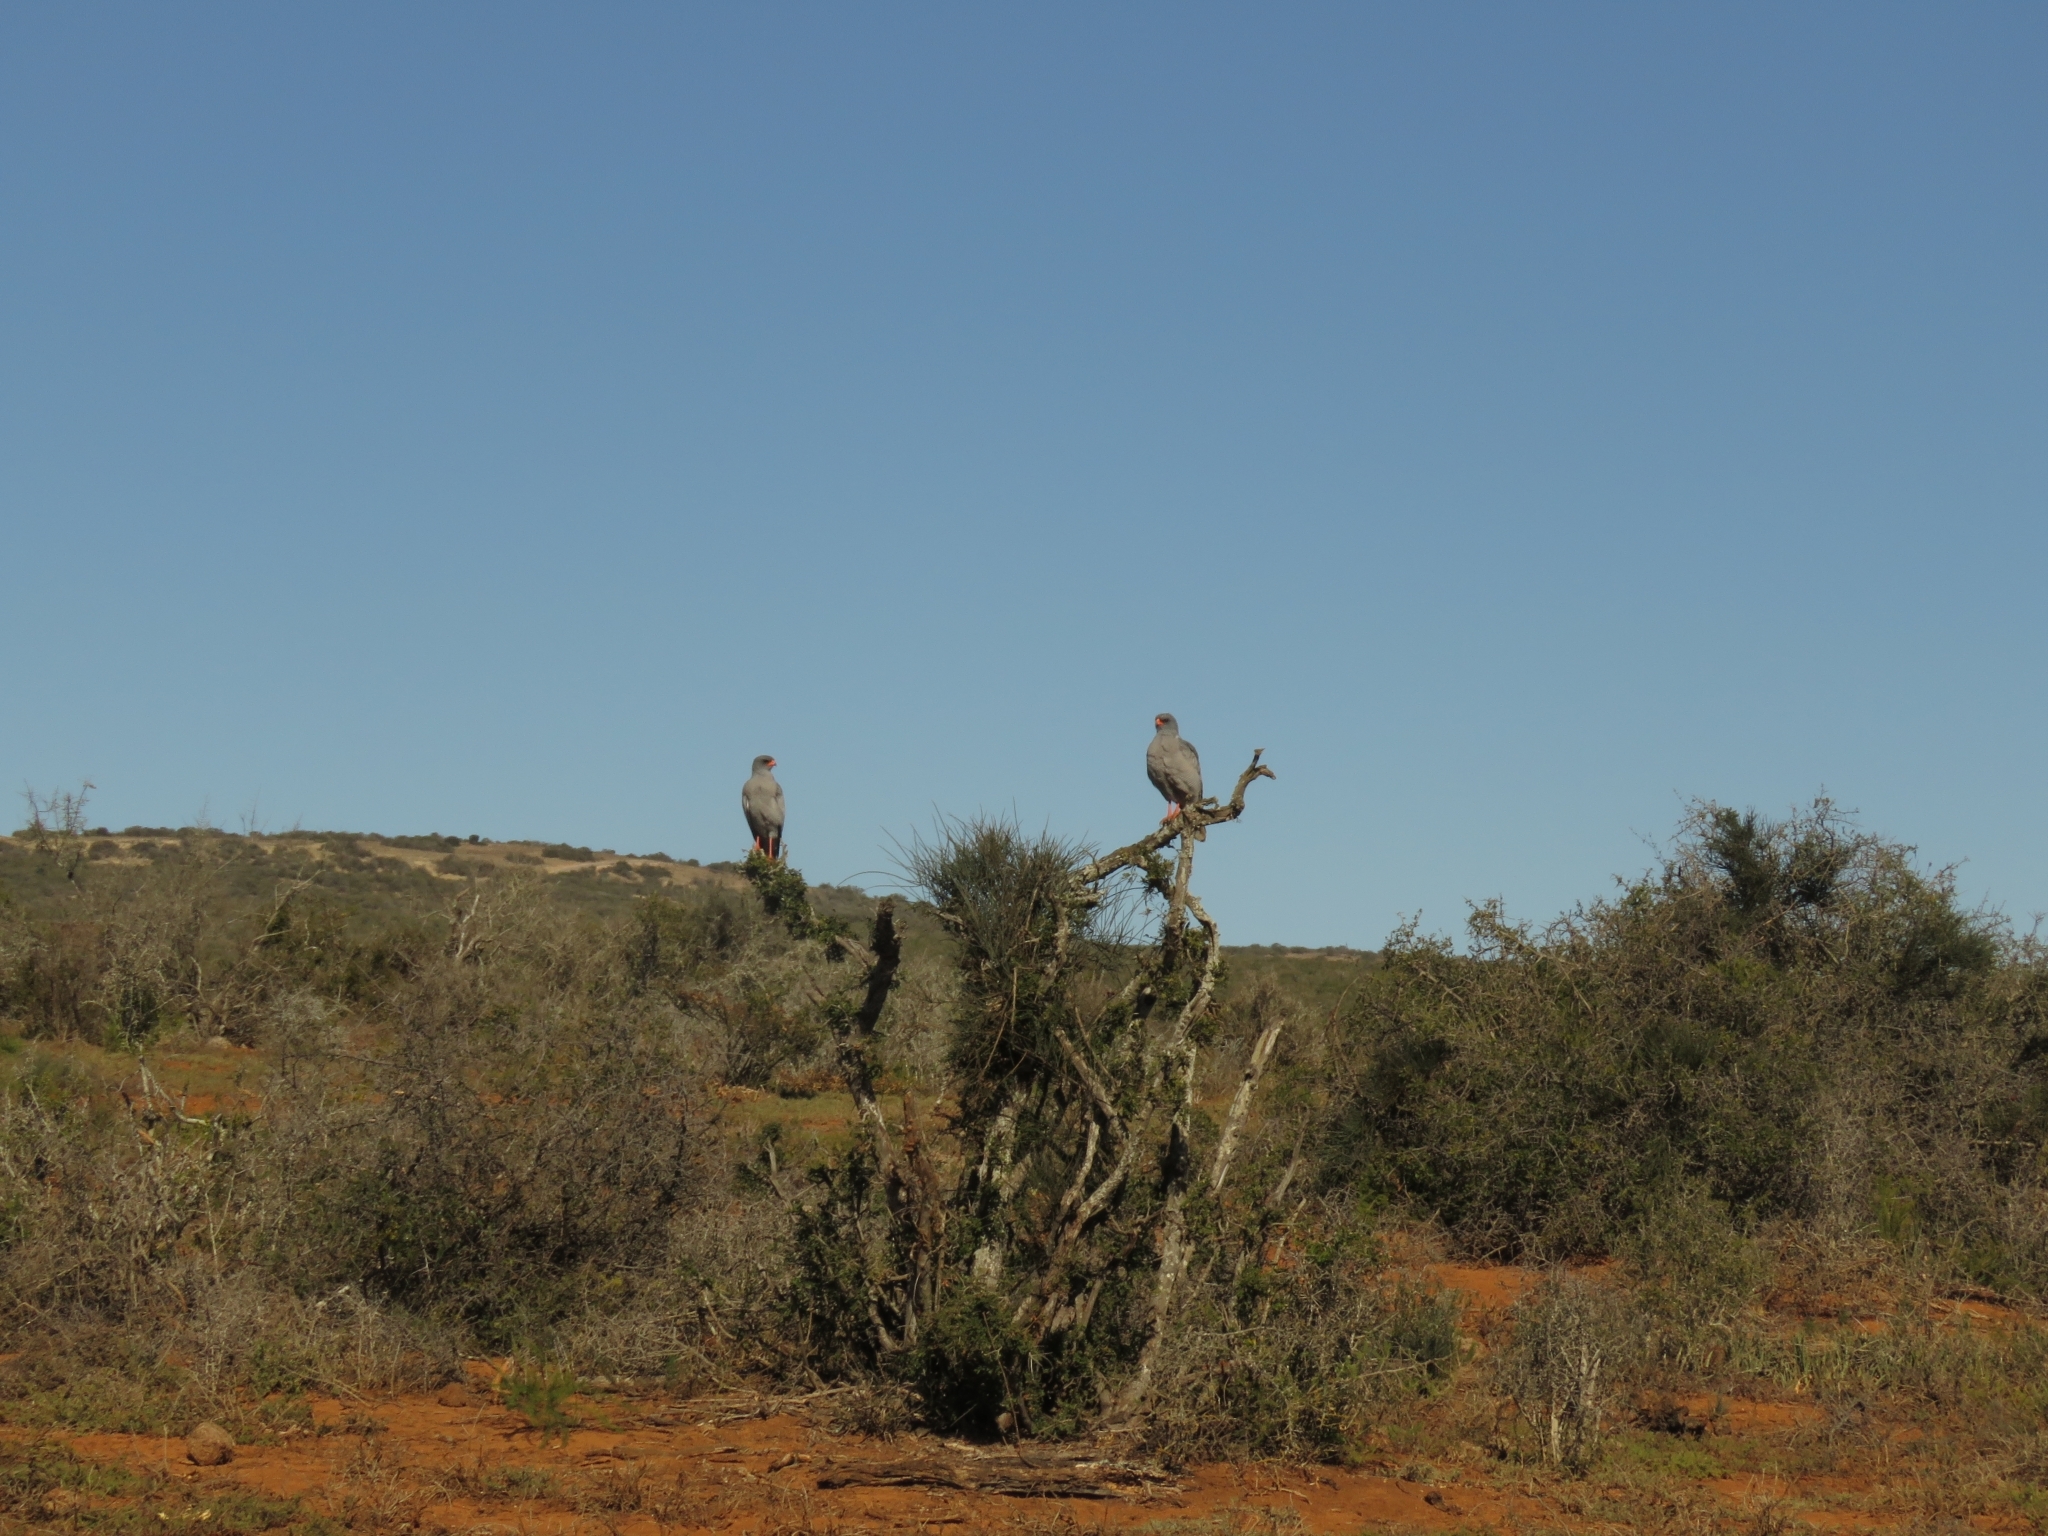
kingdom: Animalia
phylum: Chordata
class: Aves
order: Accipitriformes
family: Accipitridae
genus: Melierax
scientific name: Melierax canorus
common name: Pale chanting-goshawk
